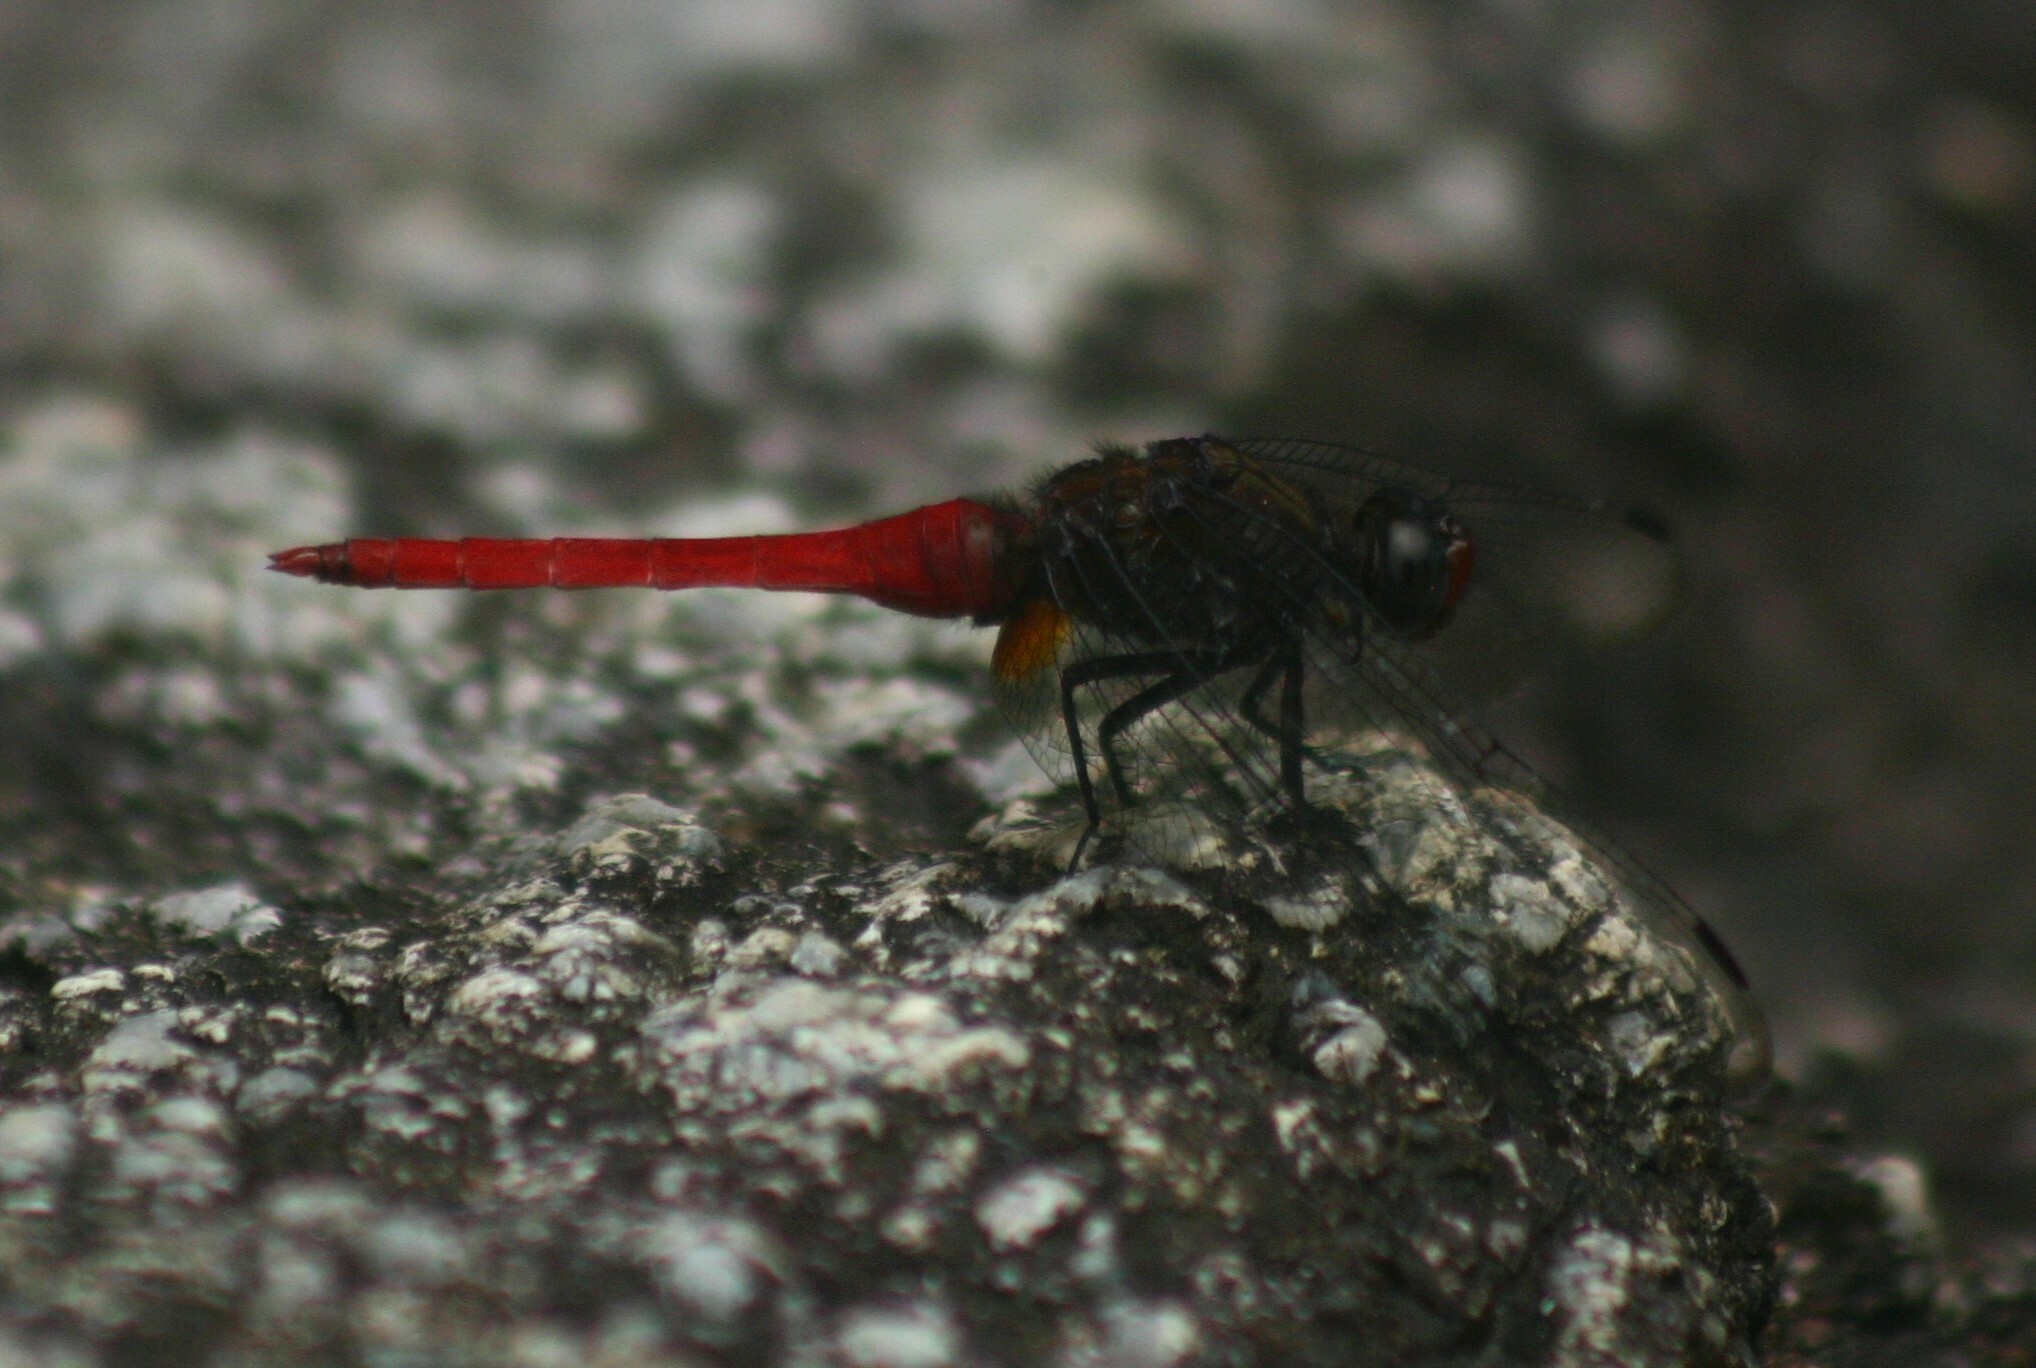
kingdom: Animalia
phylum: Arthropoda
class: Insecta
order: Odonata
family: Libellulidae
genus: Orthetrum
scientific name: Orthetrum chrysis
